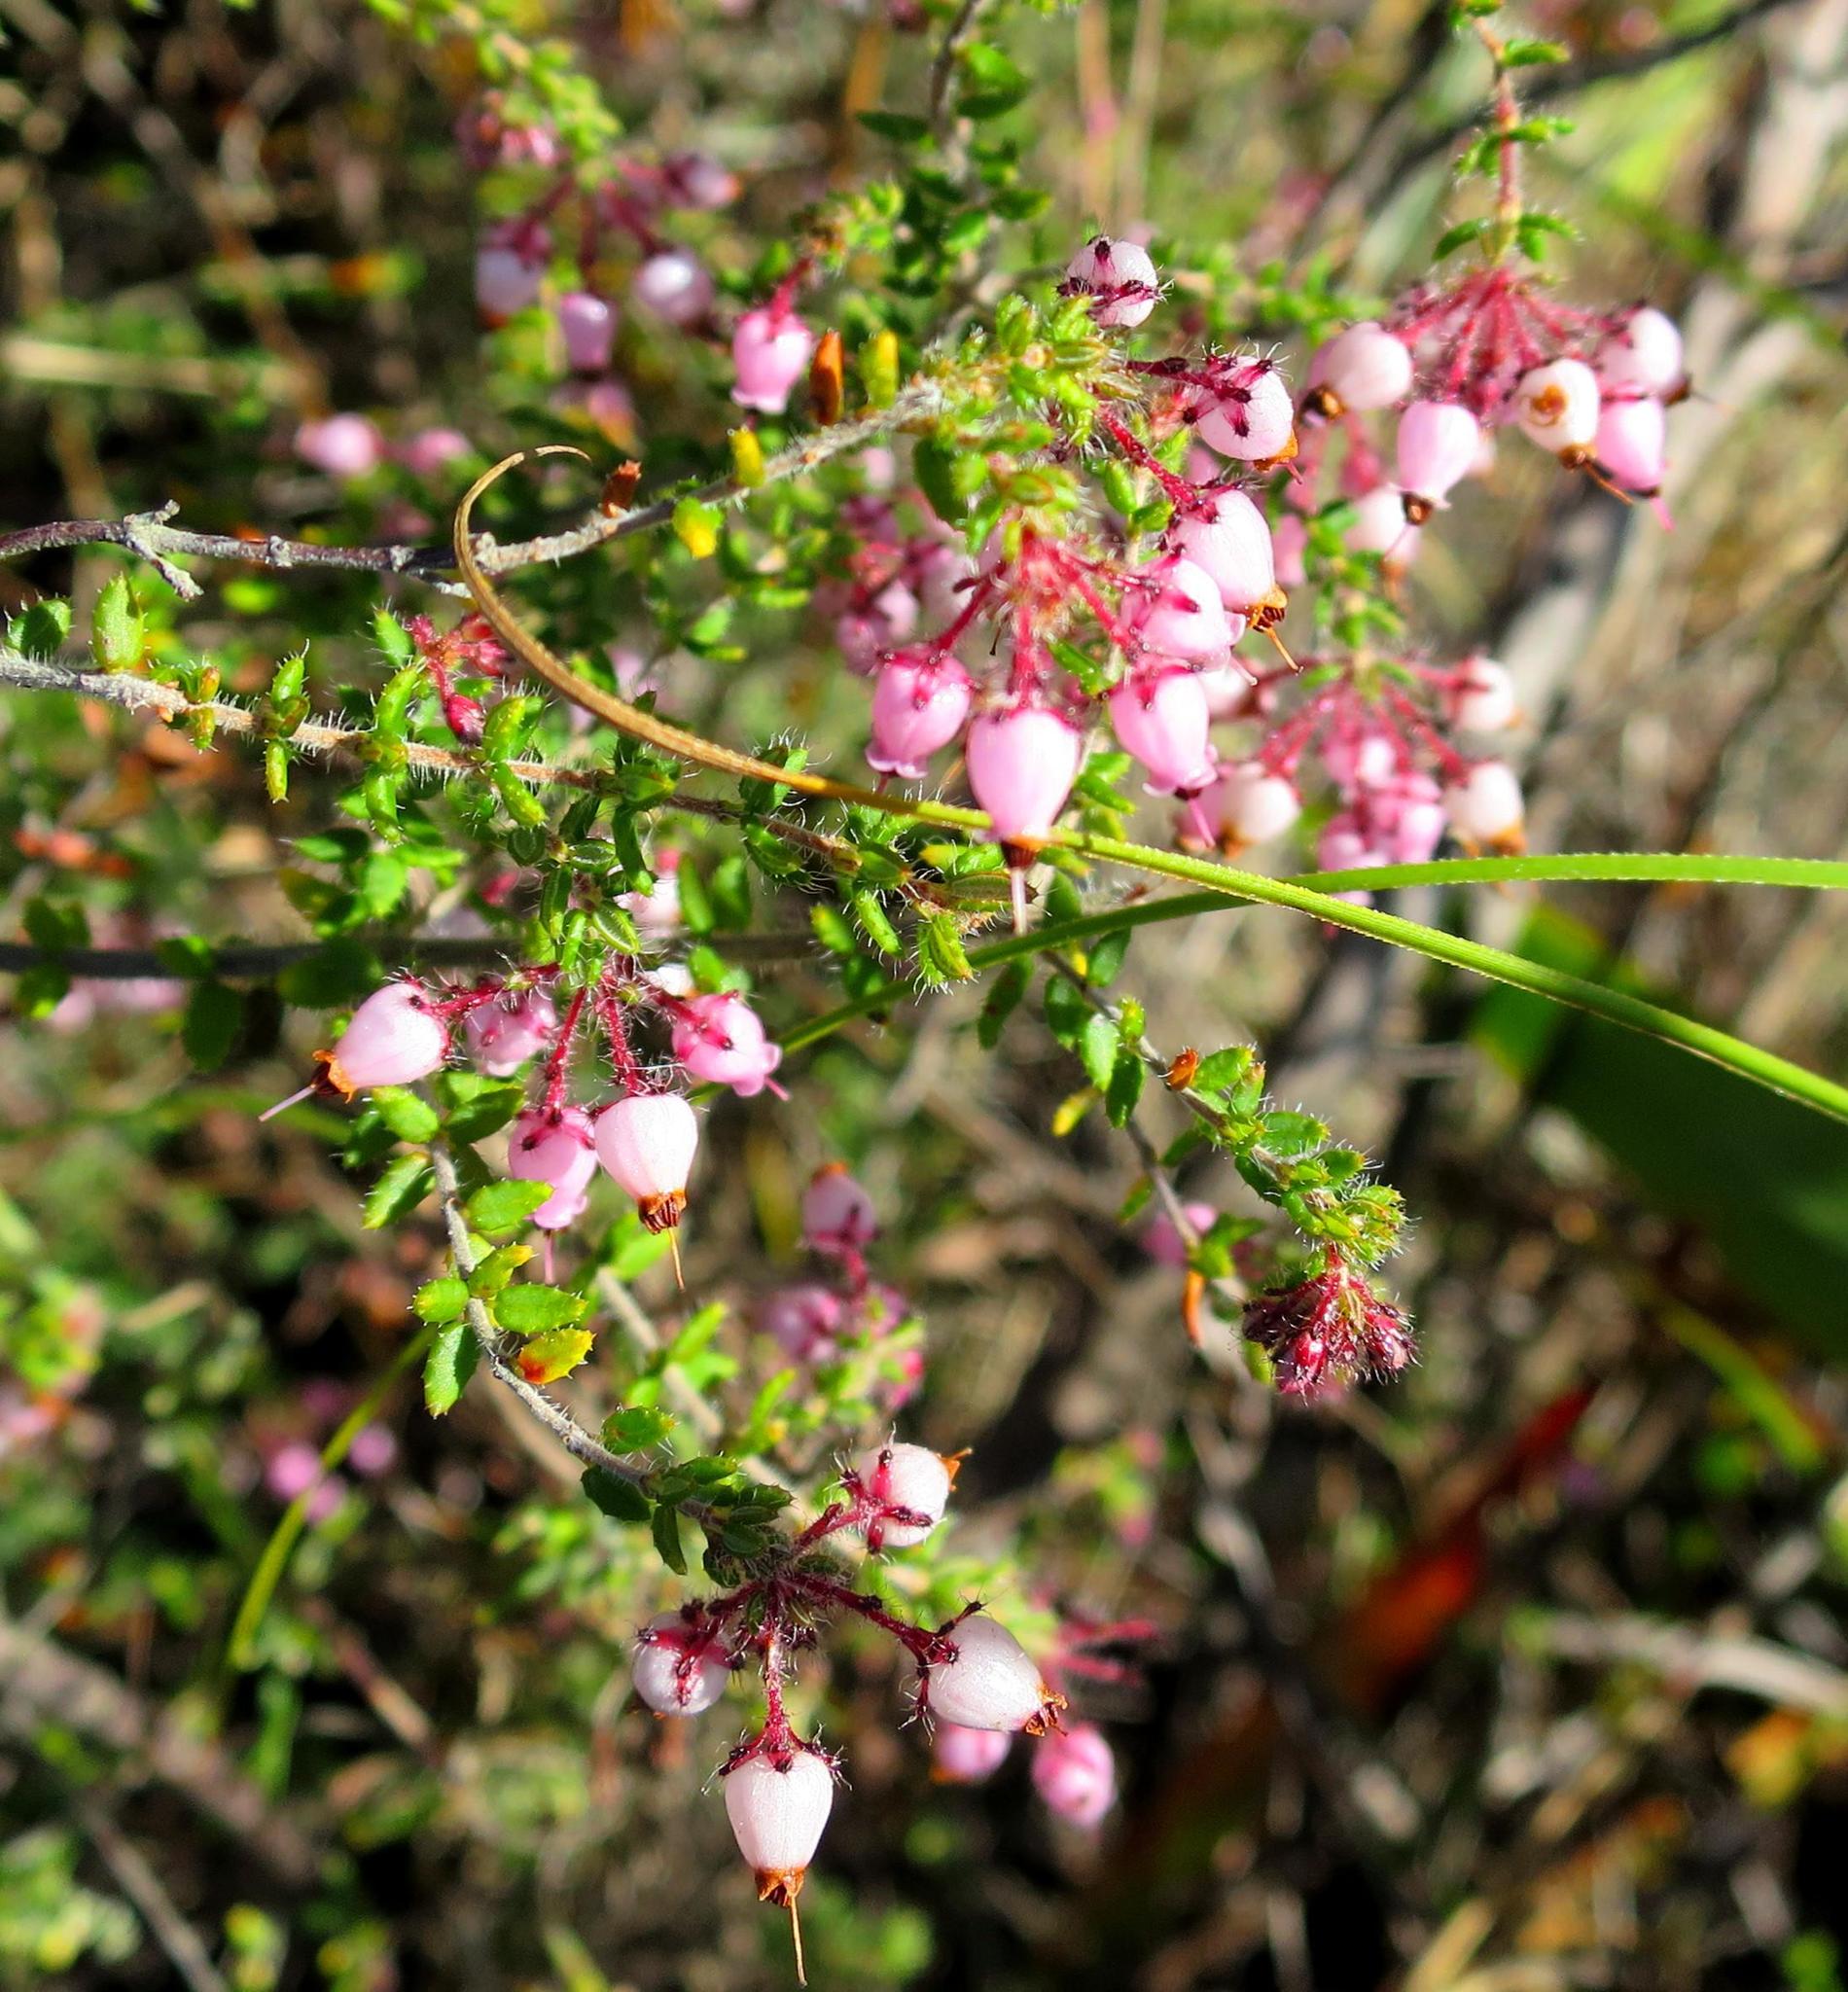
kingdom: Plantae
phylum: Tracheophyta
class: Magnoliopsida
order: Ericales
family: Ericaceae
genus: Erica
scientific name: Erica aneimena
